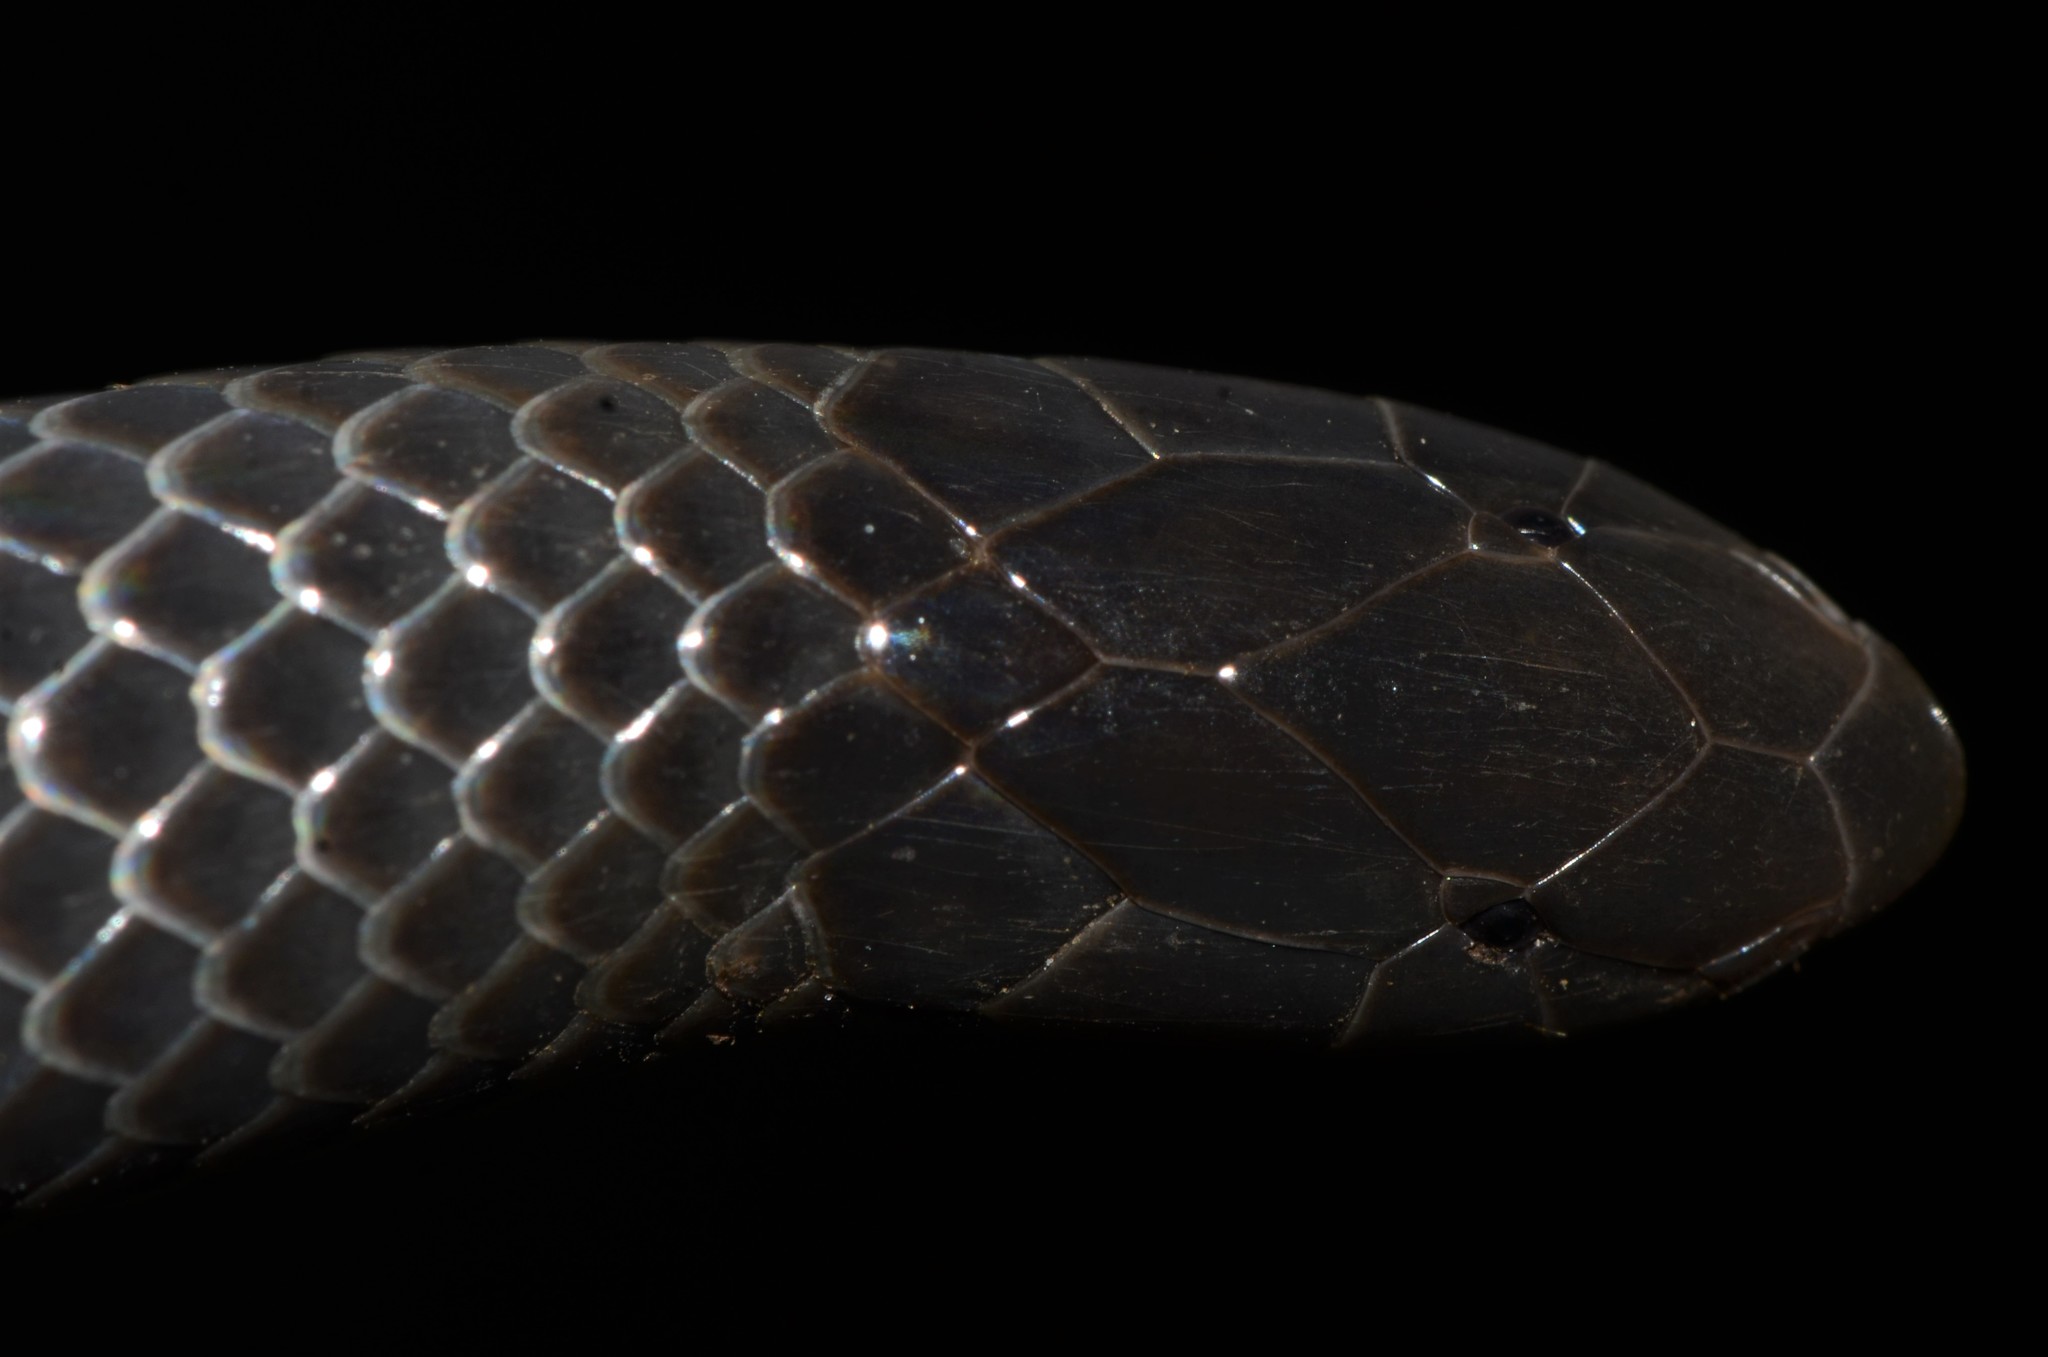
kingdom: Animalia
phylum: Chordata
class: Squamata
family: Atractaspididae
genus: Amblyodipsas
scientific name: Amblyodipsas microphthalma
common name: Eastern purple-glossed snake
